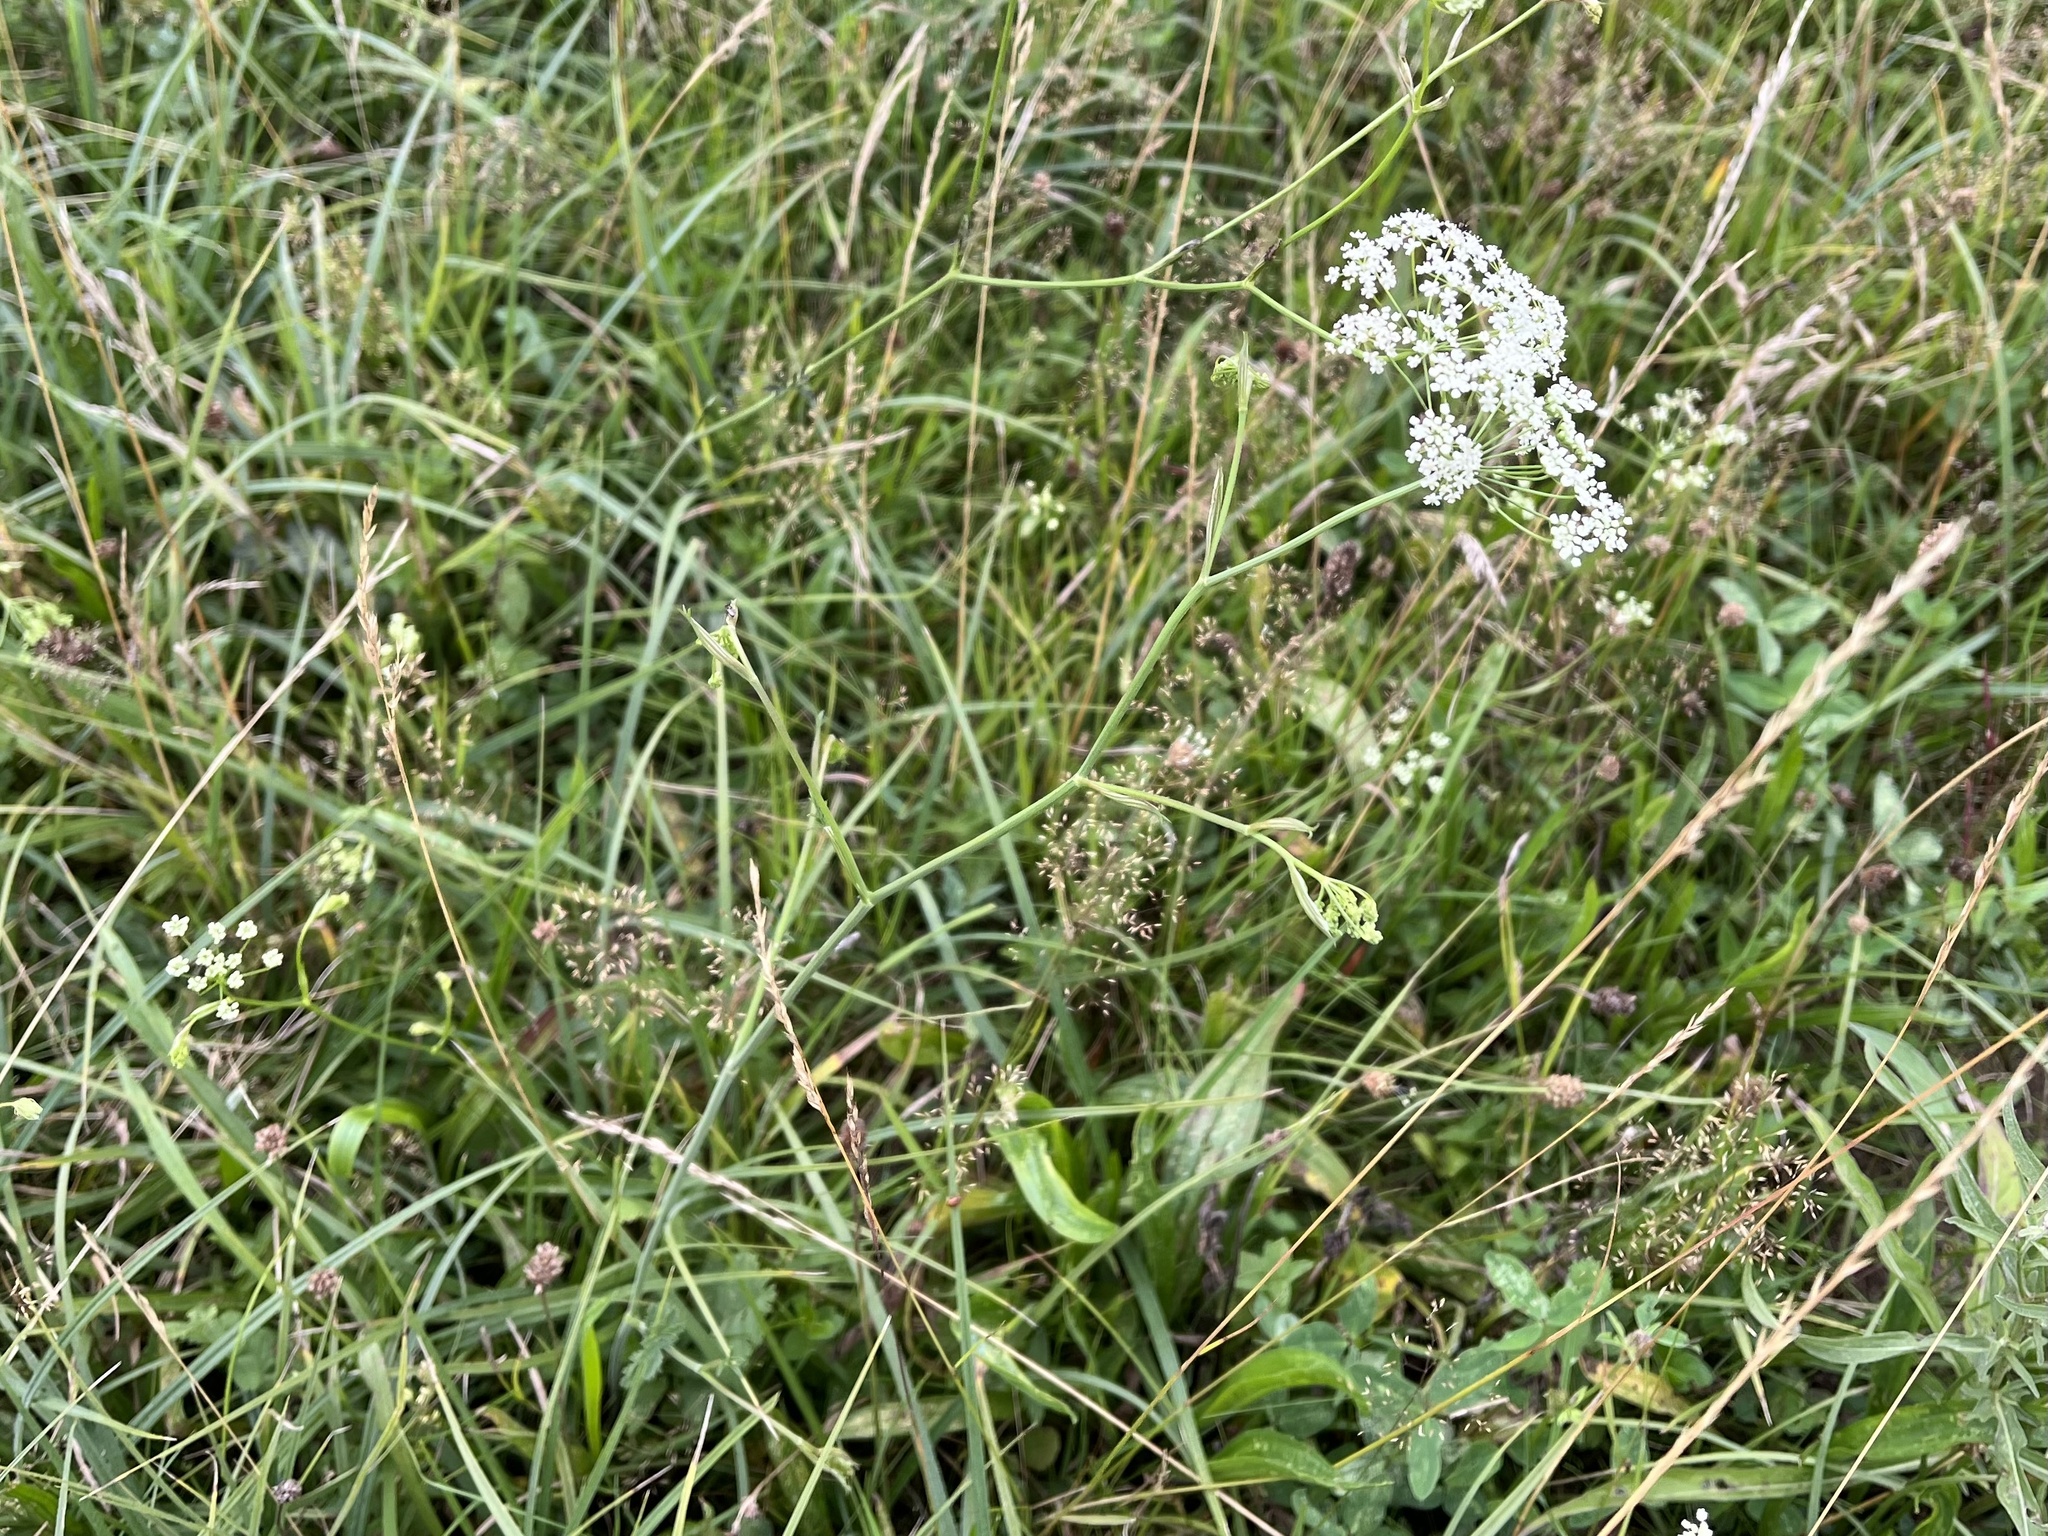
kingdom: Plantae
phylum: Tracheophyta
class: Magnoliopsida
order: Apiales
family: Apiaceae
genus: Pimpinella
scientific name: Pimpinella saxifraga
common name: Burnet-saxifrage
